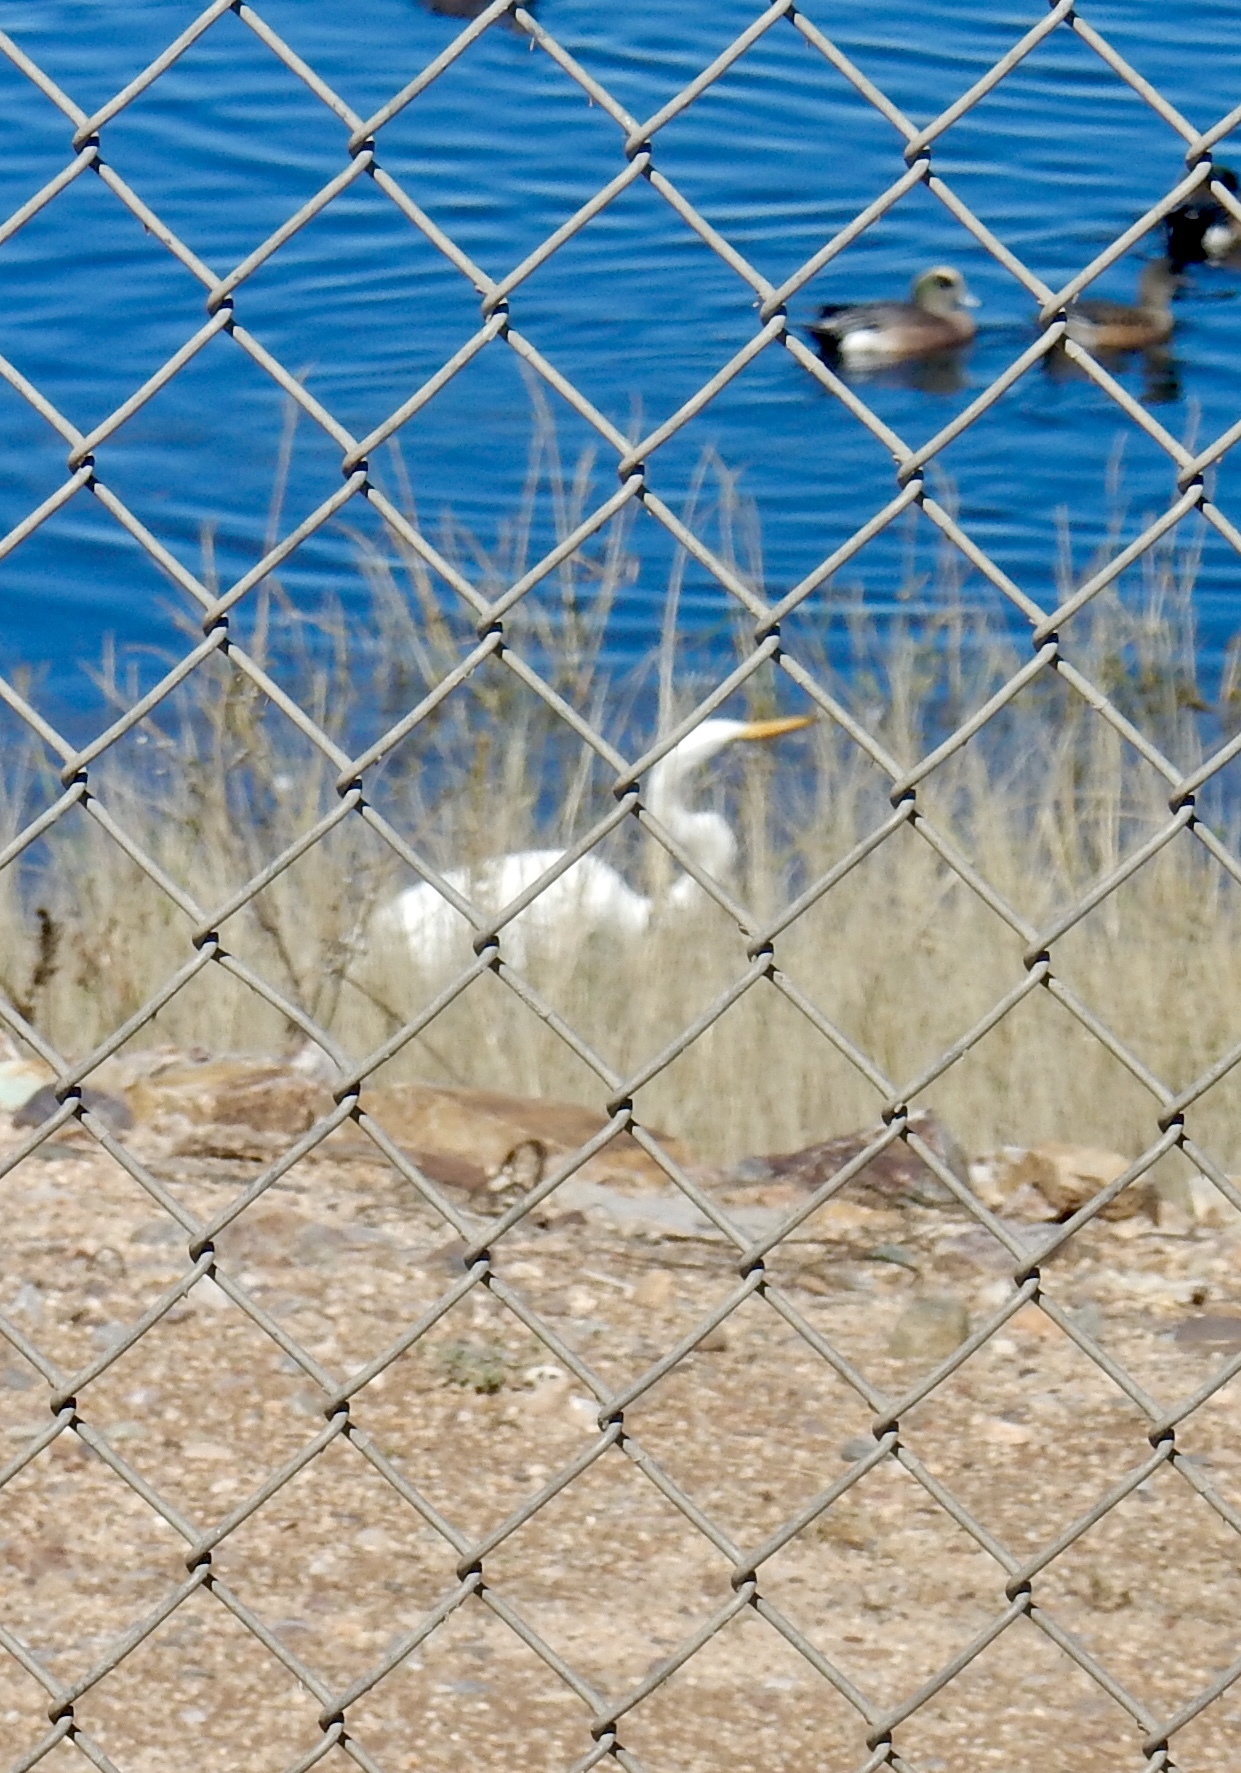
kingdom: Animalia
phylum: Chordata
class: Aves
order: Pelecaniformes
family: Ardeidae
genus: Ardea
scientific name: Ardea alba
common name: Great egret
